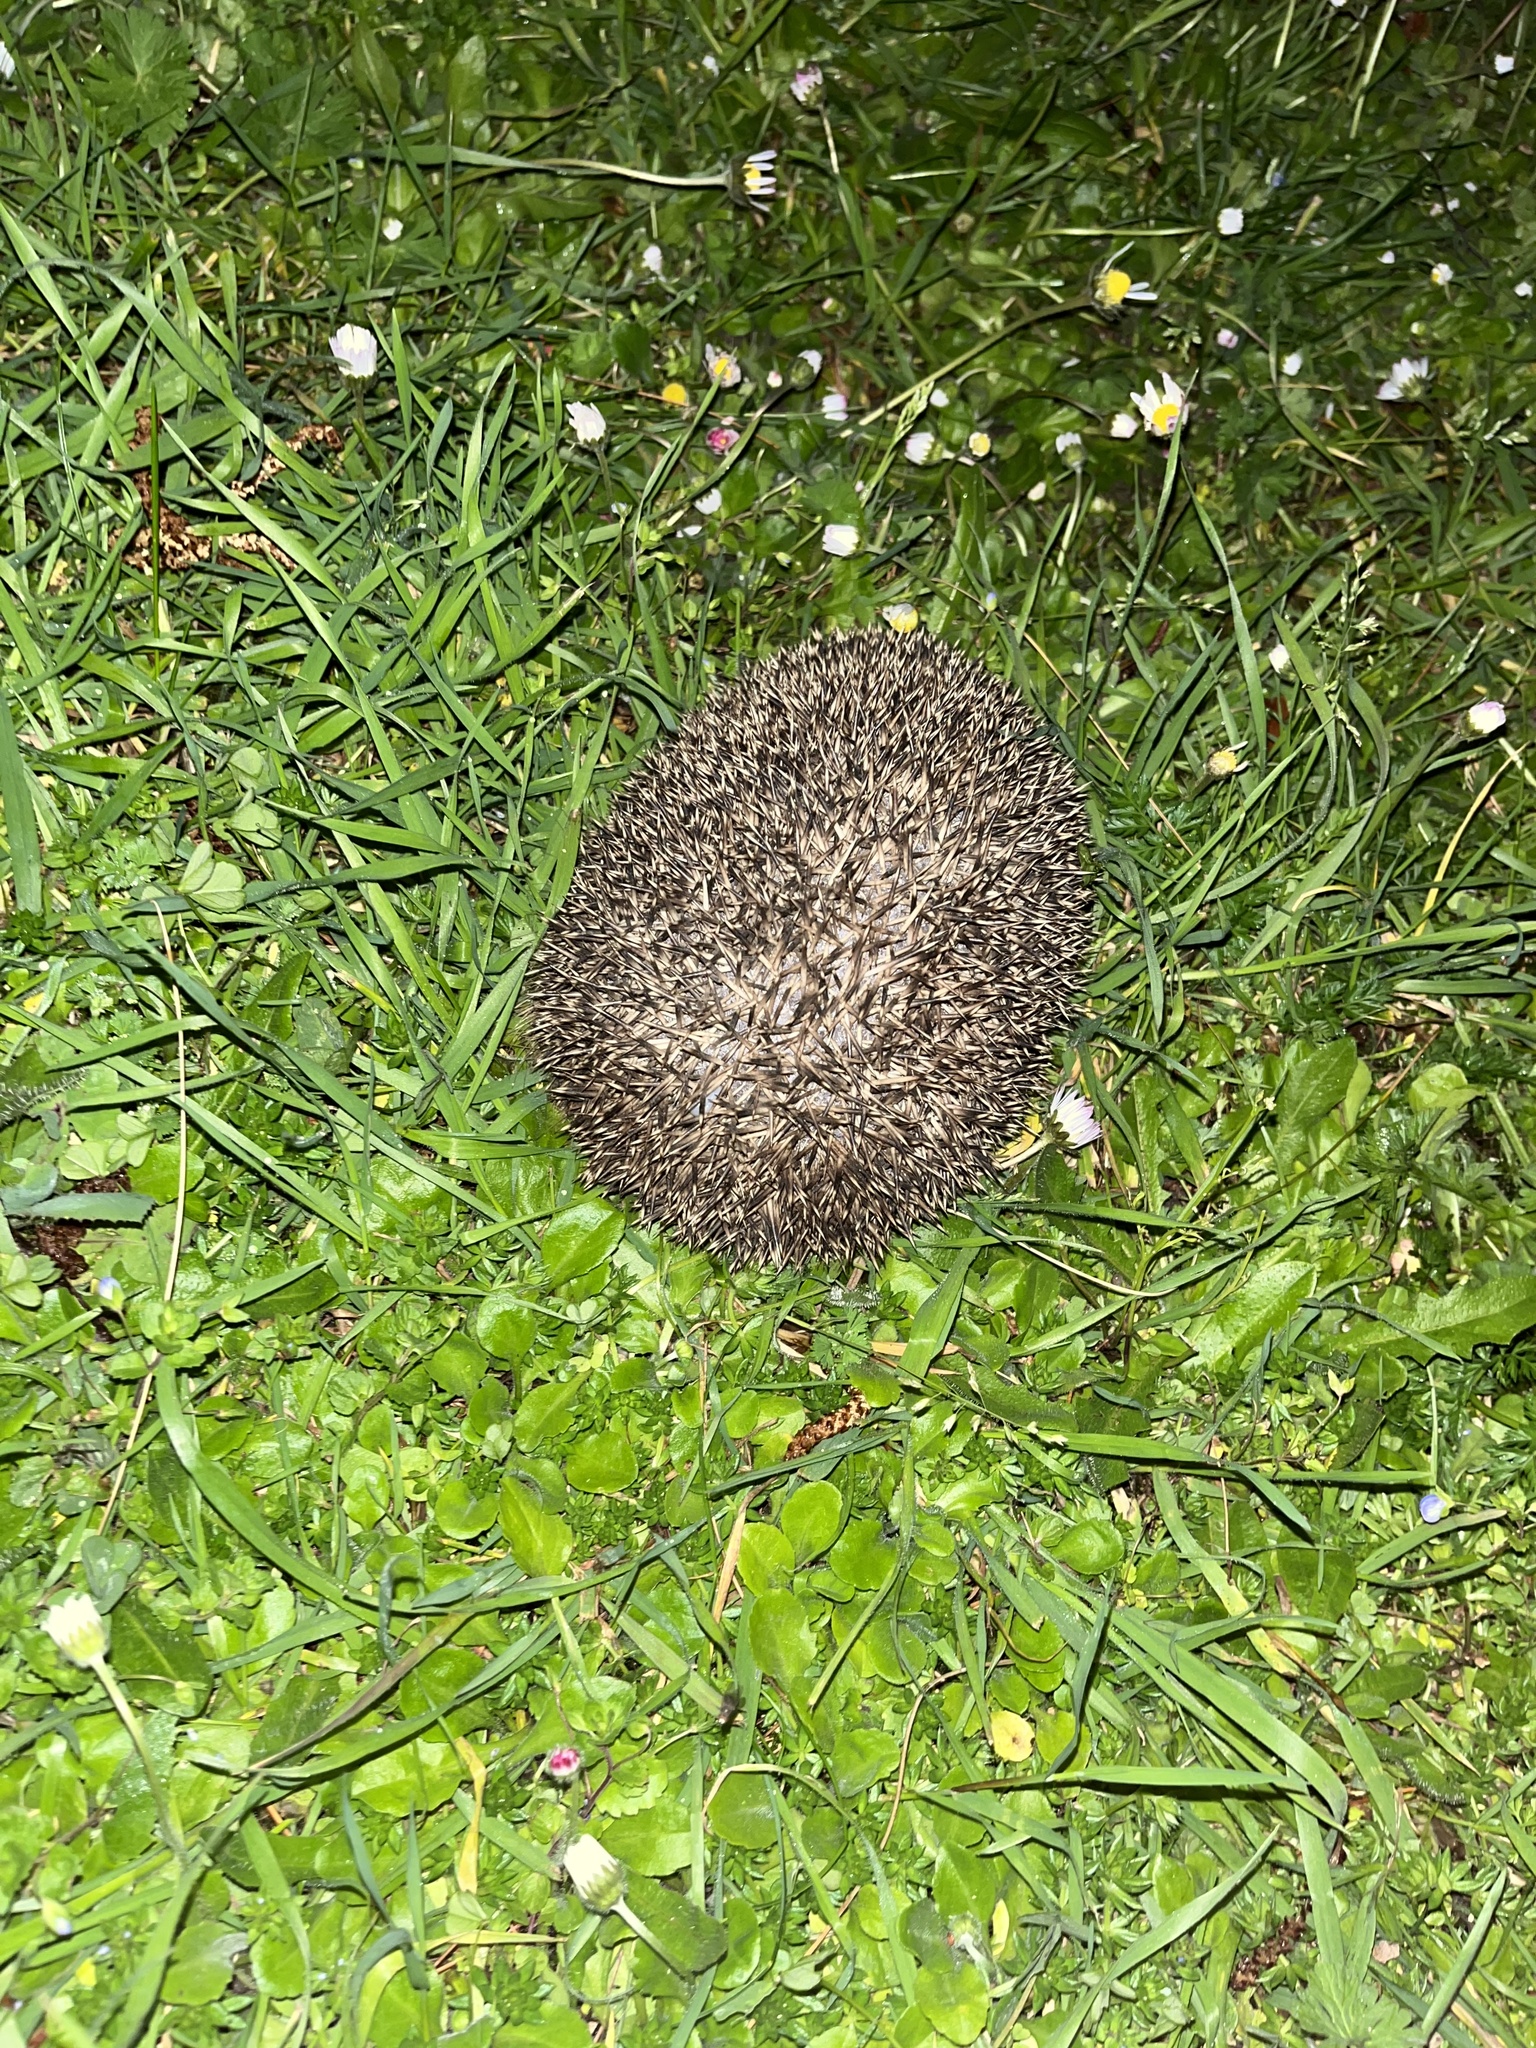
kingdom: Animalia
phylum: Chordata
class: Mammalia
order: Erinaceomorpha
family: Erinaceidae
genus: Erinaceus
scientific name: Erinaceus europaeus
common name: West european hedgehog
